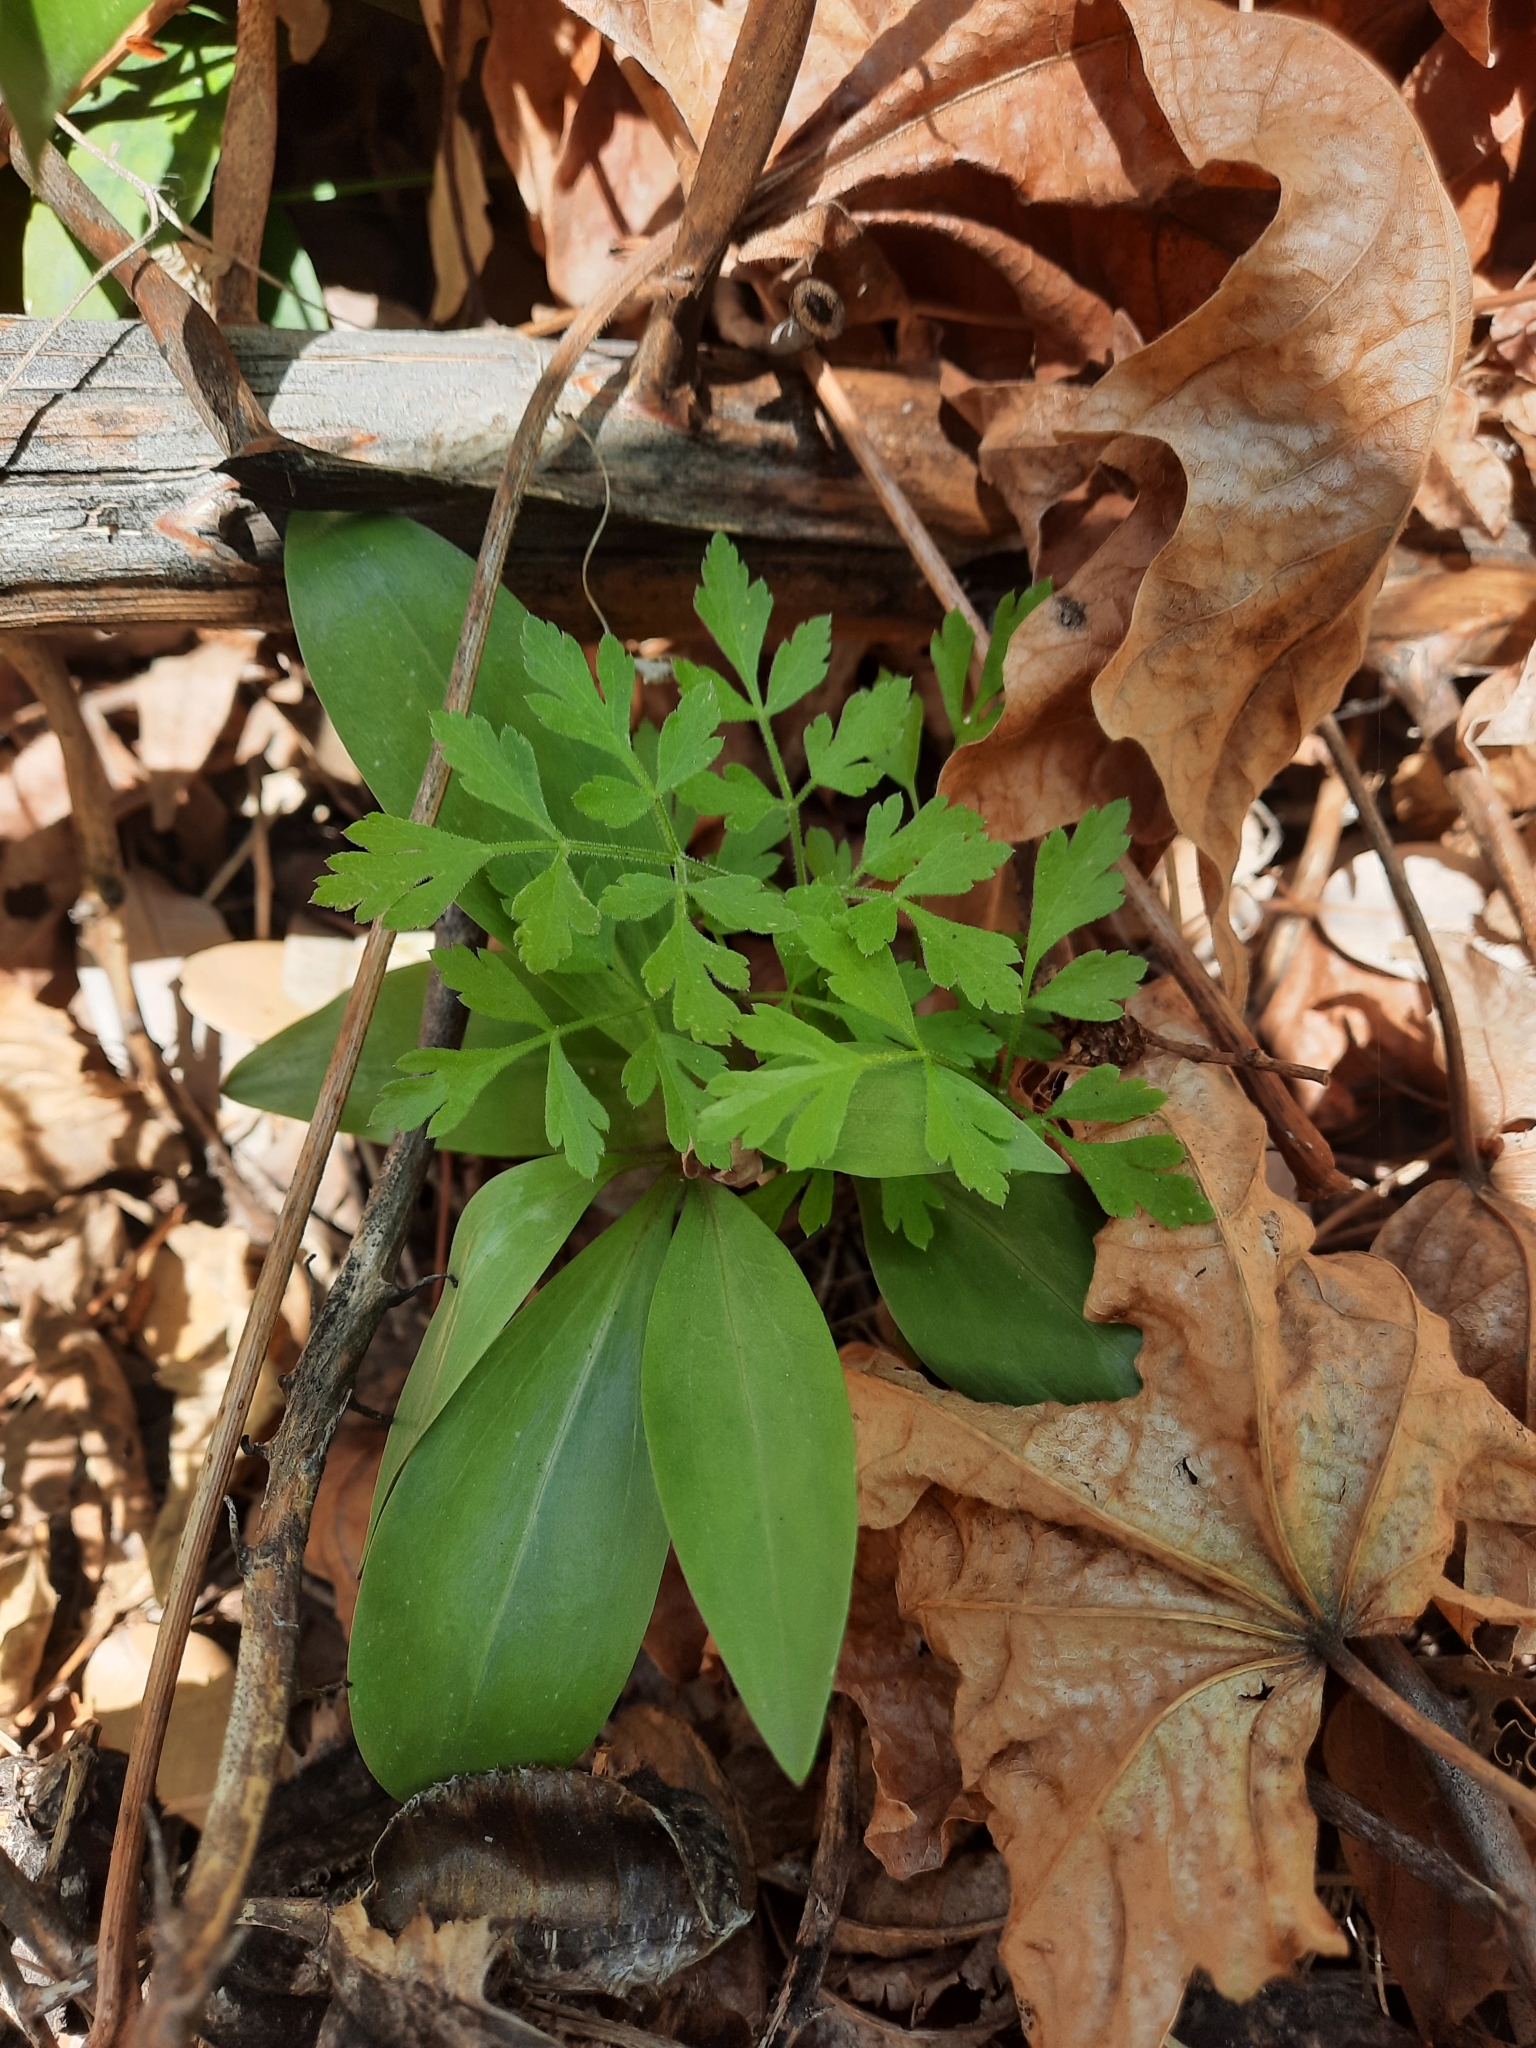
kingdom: Plantae
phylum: Tracheophyta
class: Liliopsida
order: Liliales
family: Liliaceae
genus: Lilium
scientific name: Lilium humboldtii
